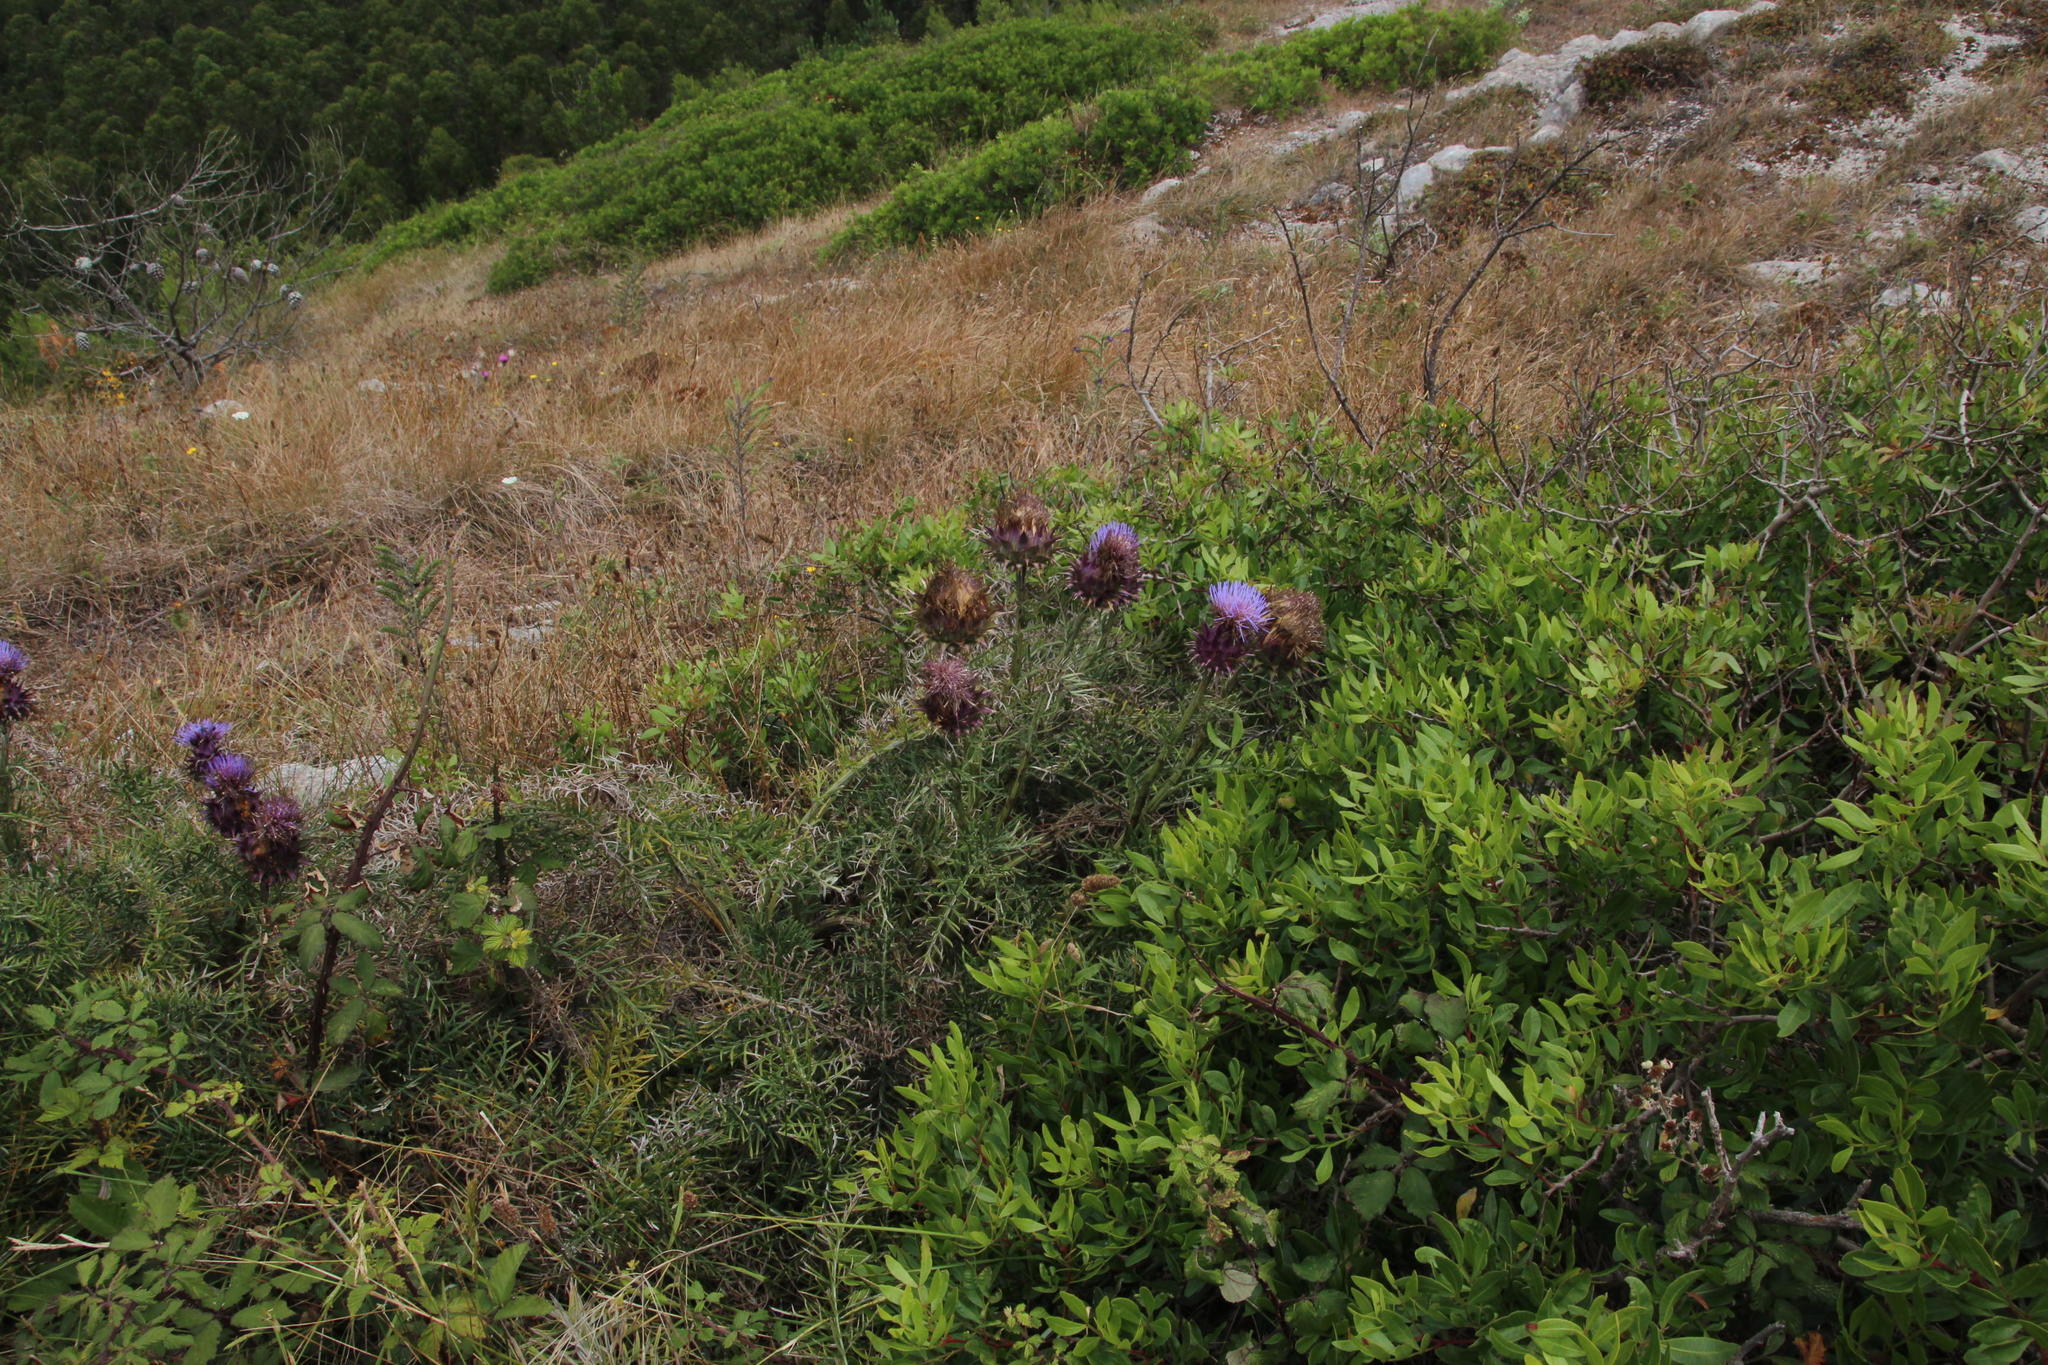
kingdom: Plantae
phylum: Tracheophyta
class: Magnoliopsida
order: Asterales
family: Asteraceae
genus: Cynara
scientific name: Cynara humilis
